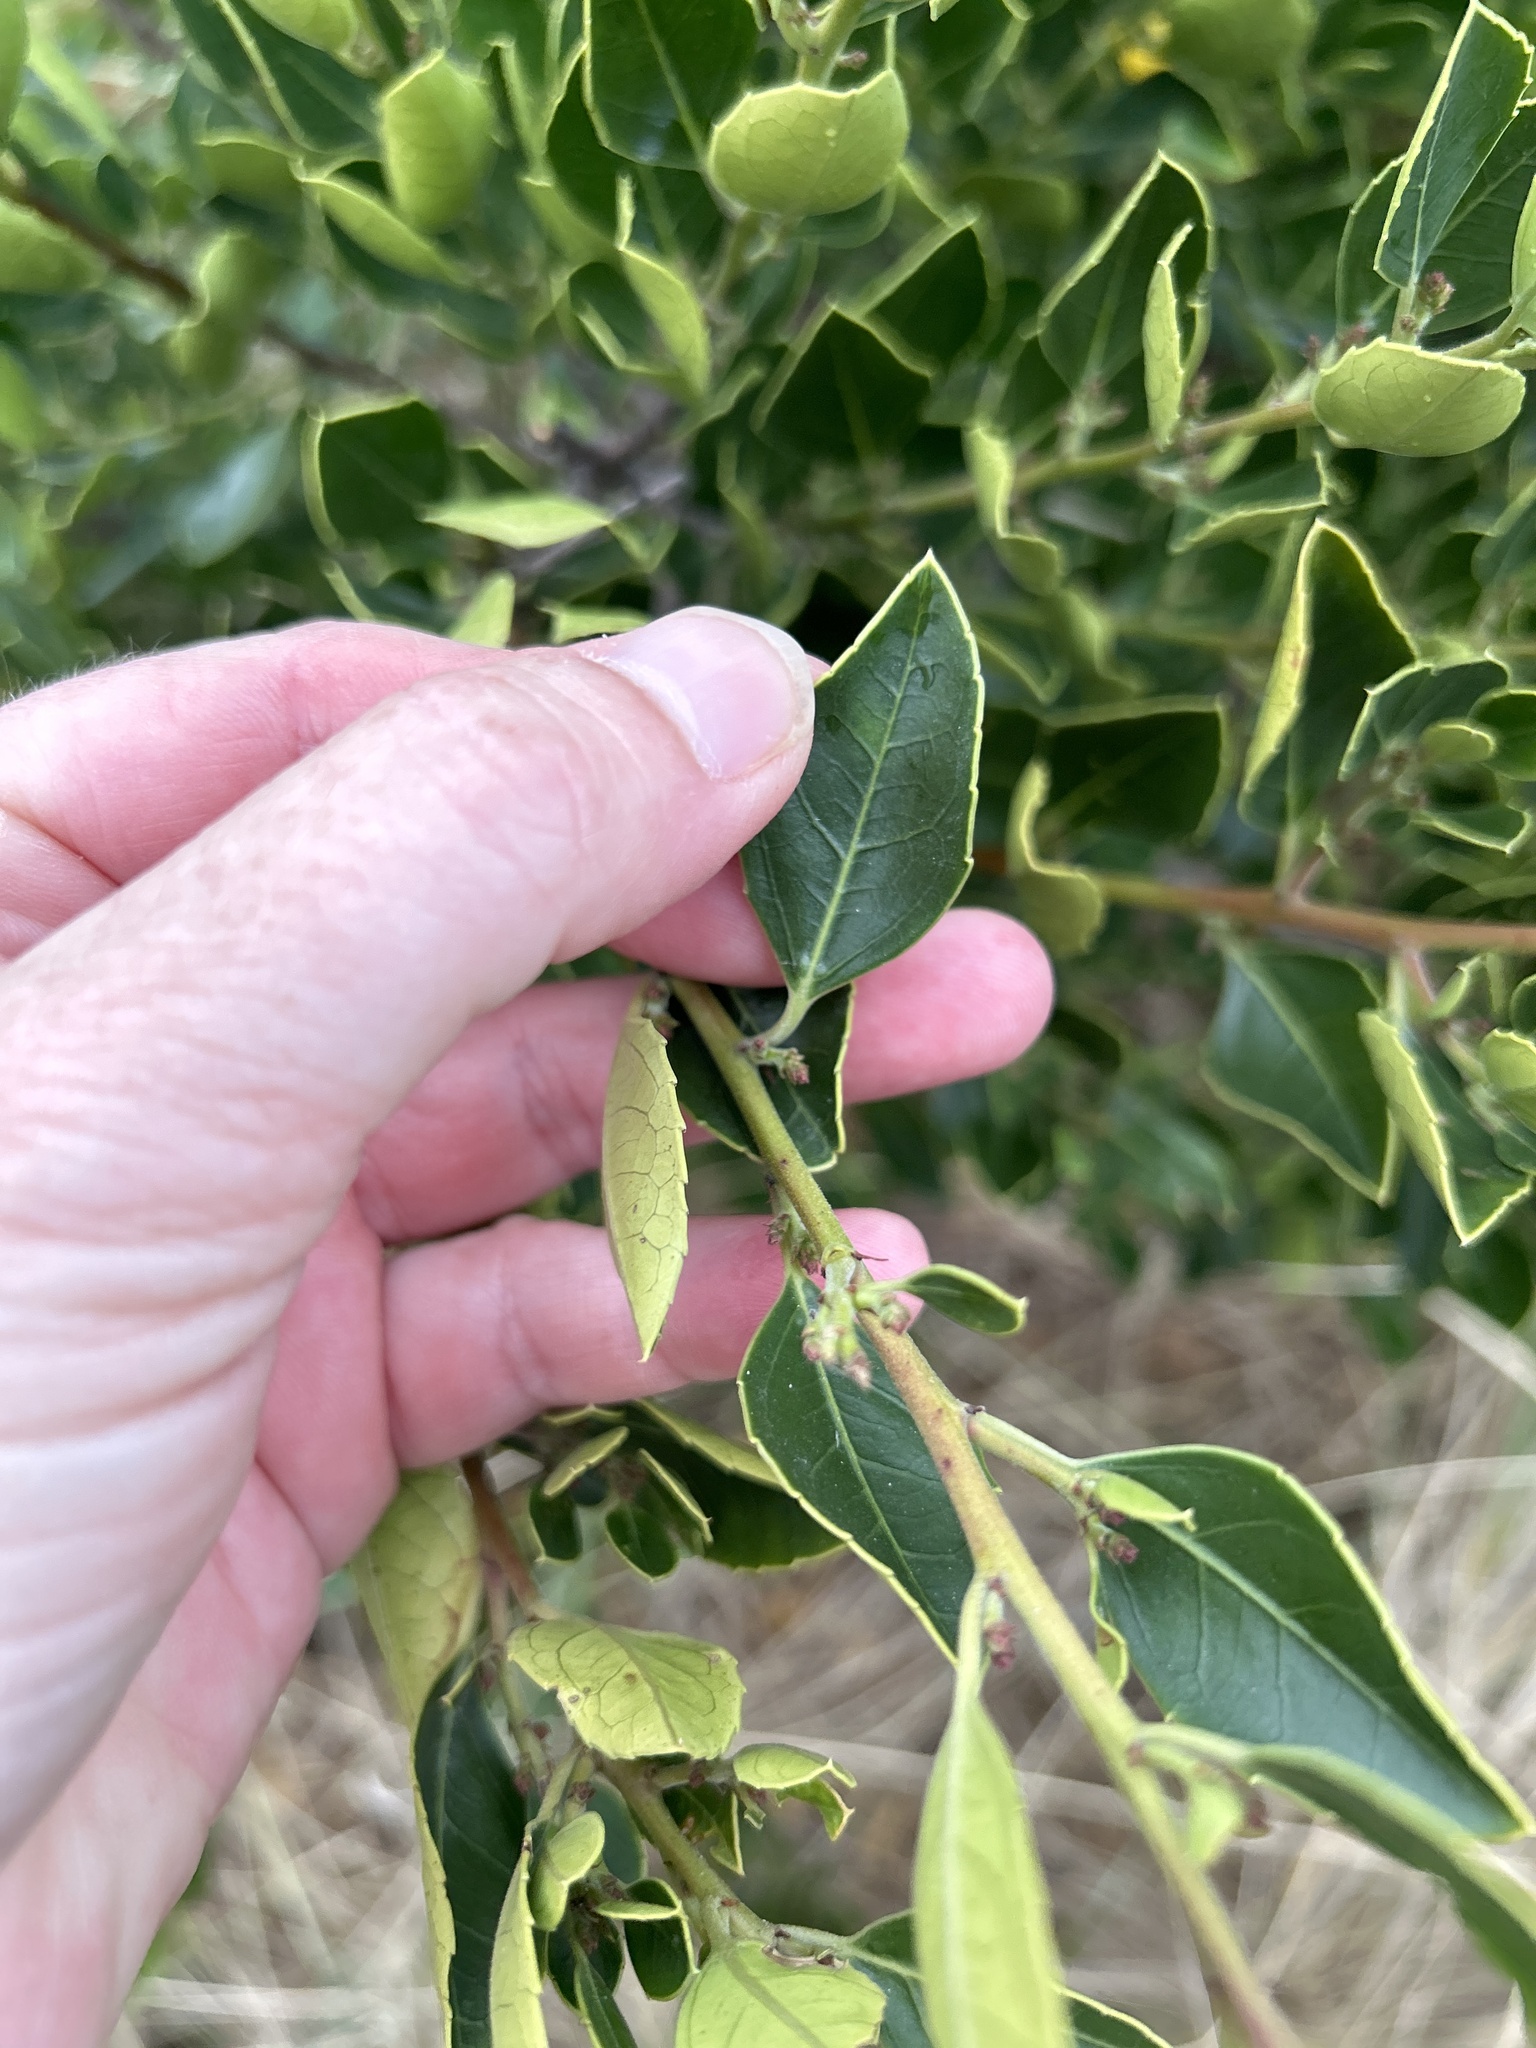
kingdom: Plantae
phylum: Tracheophyta
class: Magnoliopsida
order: Rosales
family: Rhamnaceae
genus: Rhamnus
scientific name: Rhamnus alaternus
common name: Mediterranean buckthorn
